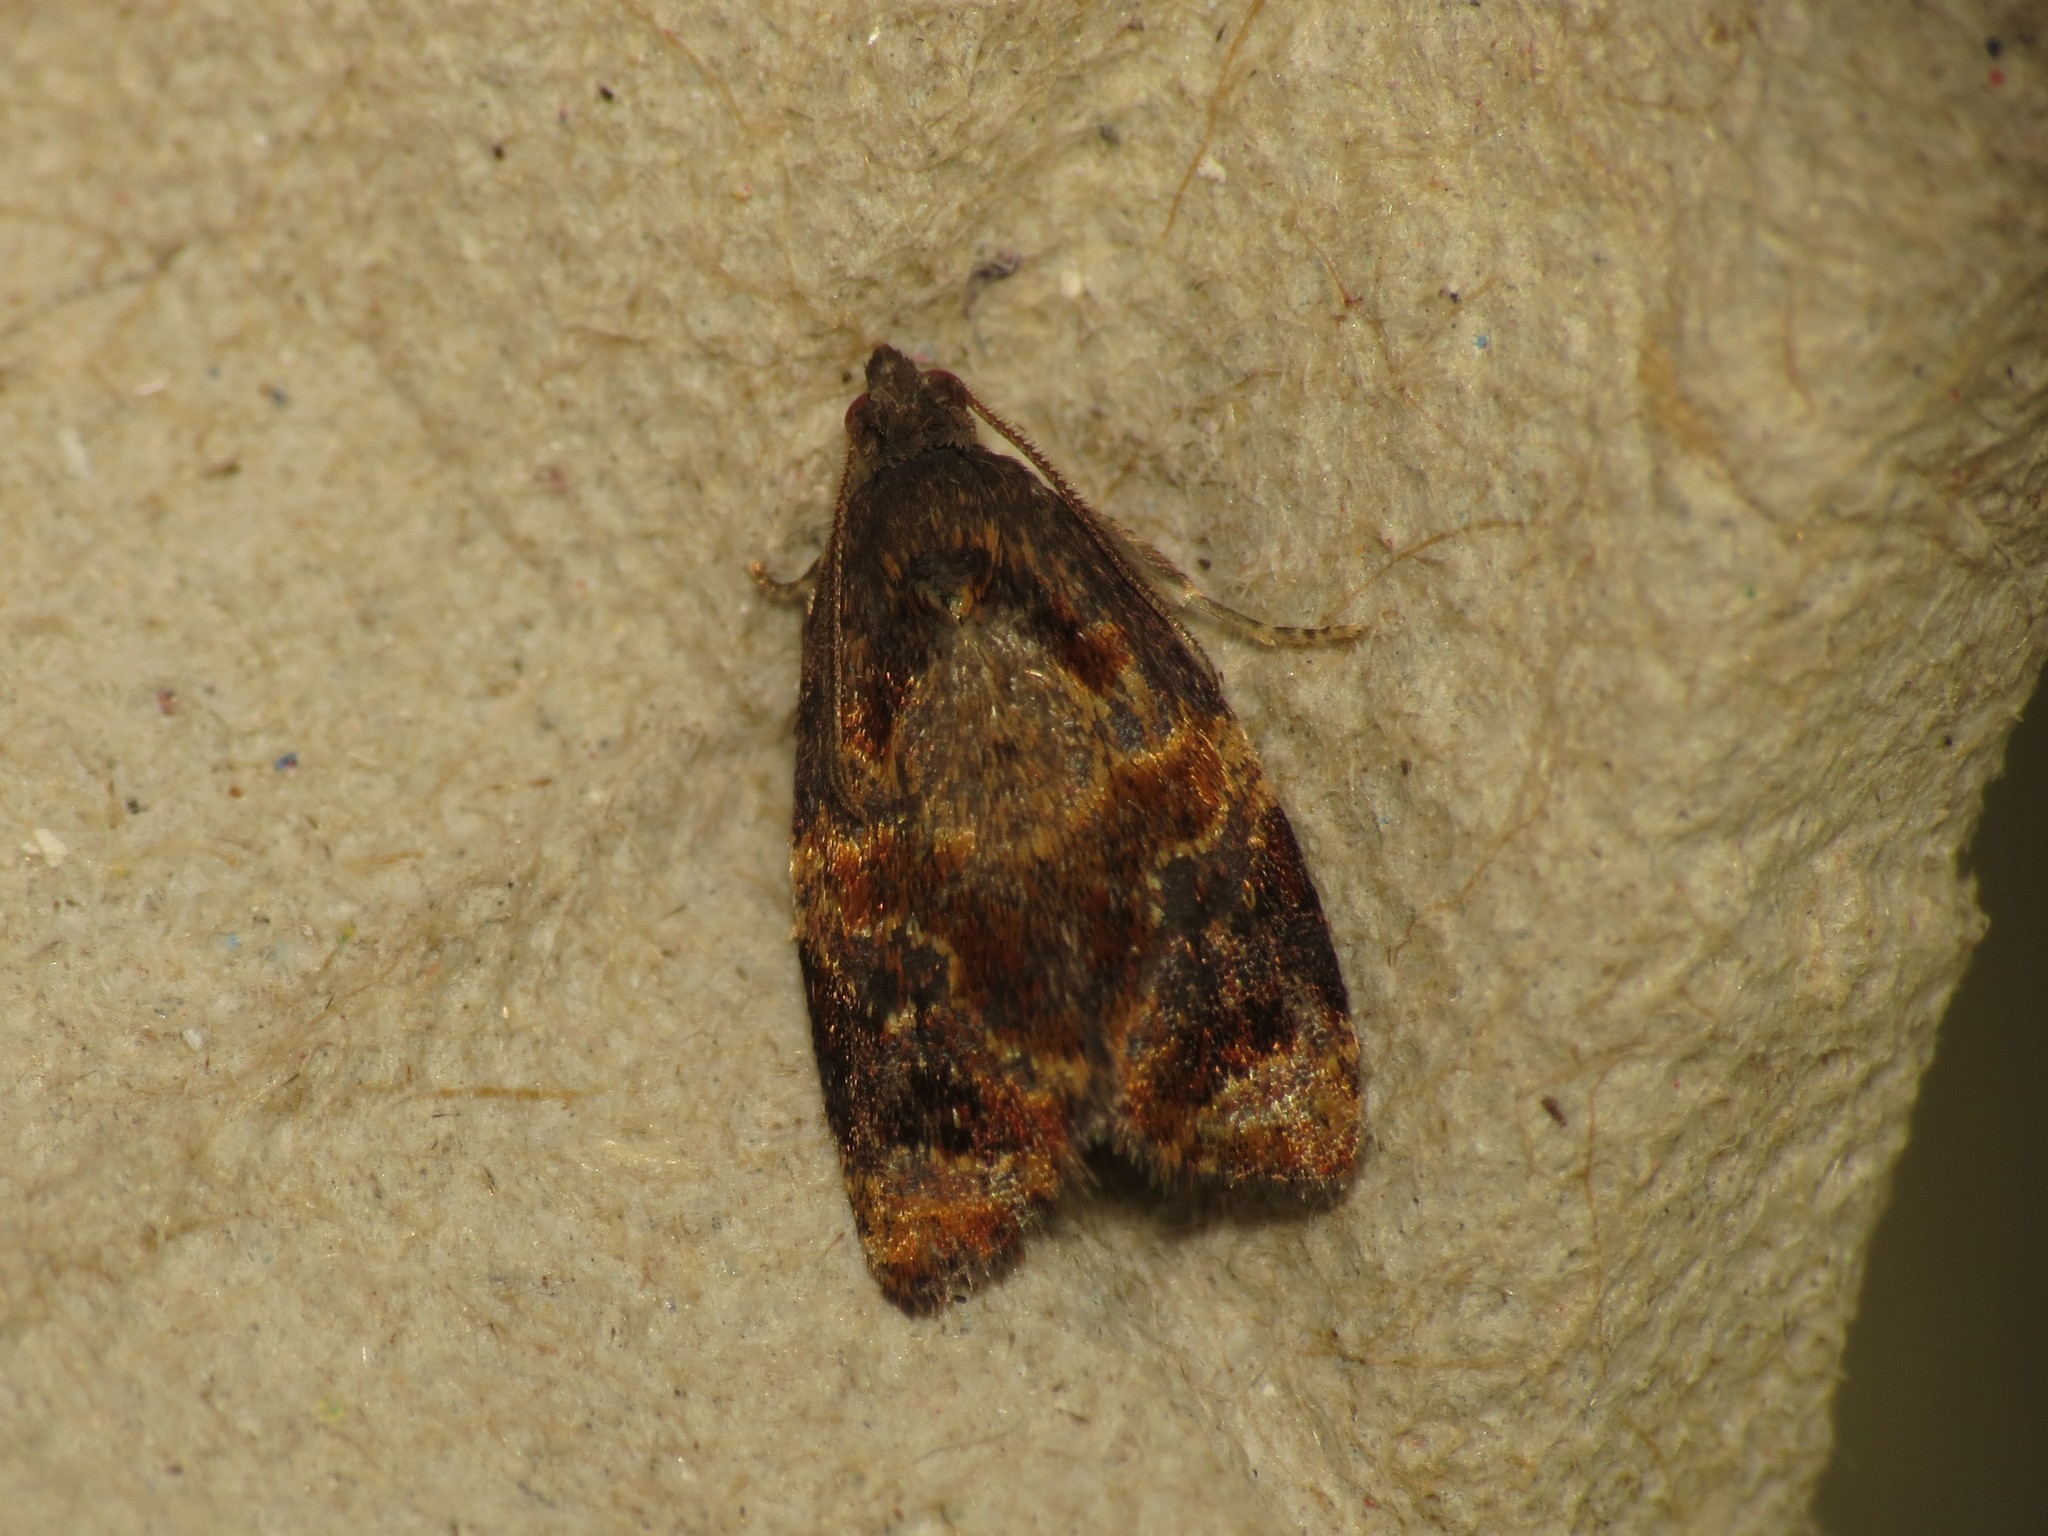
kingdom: Animalia
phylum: Arthropoda
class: Insecta
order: Lepidoptera
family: Tortricidae
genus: Ditula
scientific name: Ditula angustiorana
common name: Red-barred tortrix
